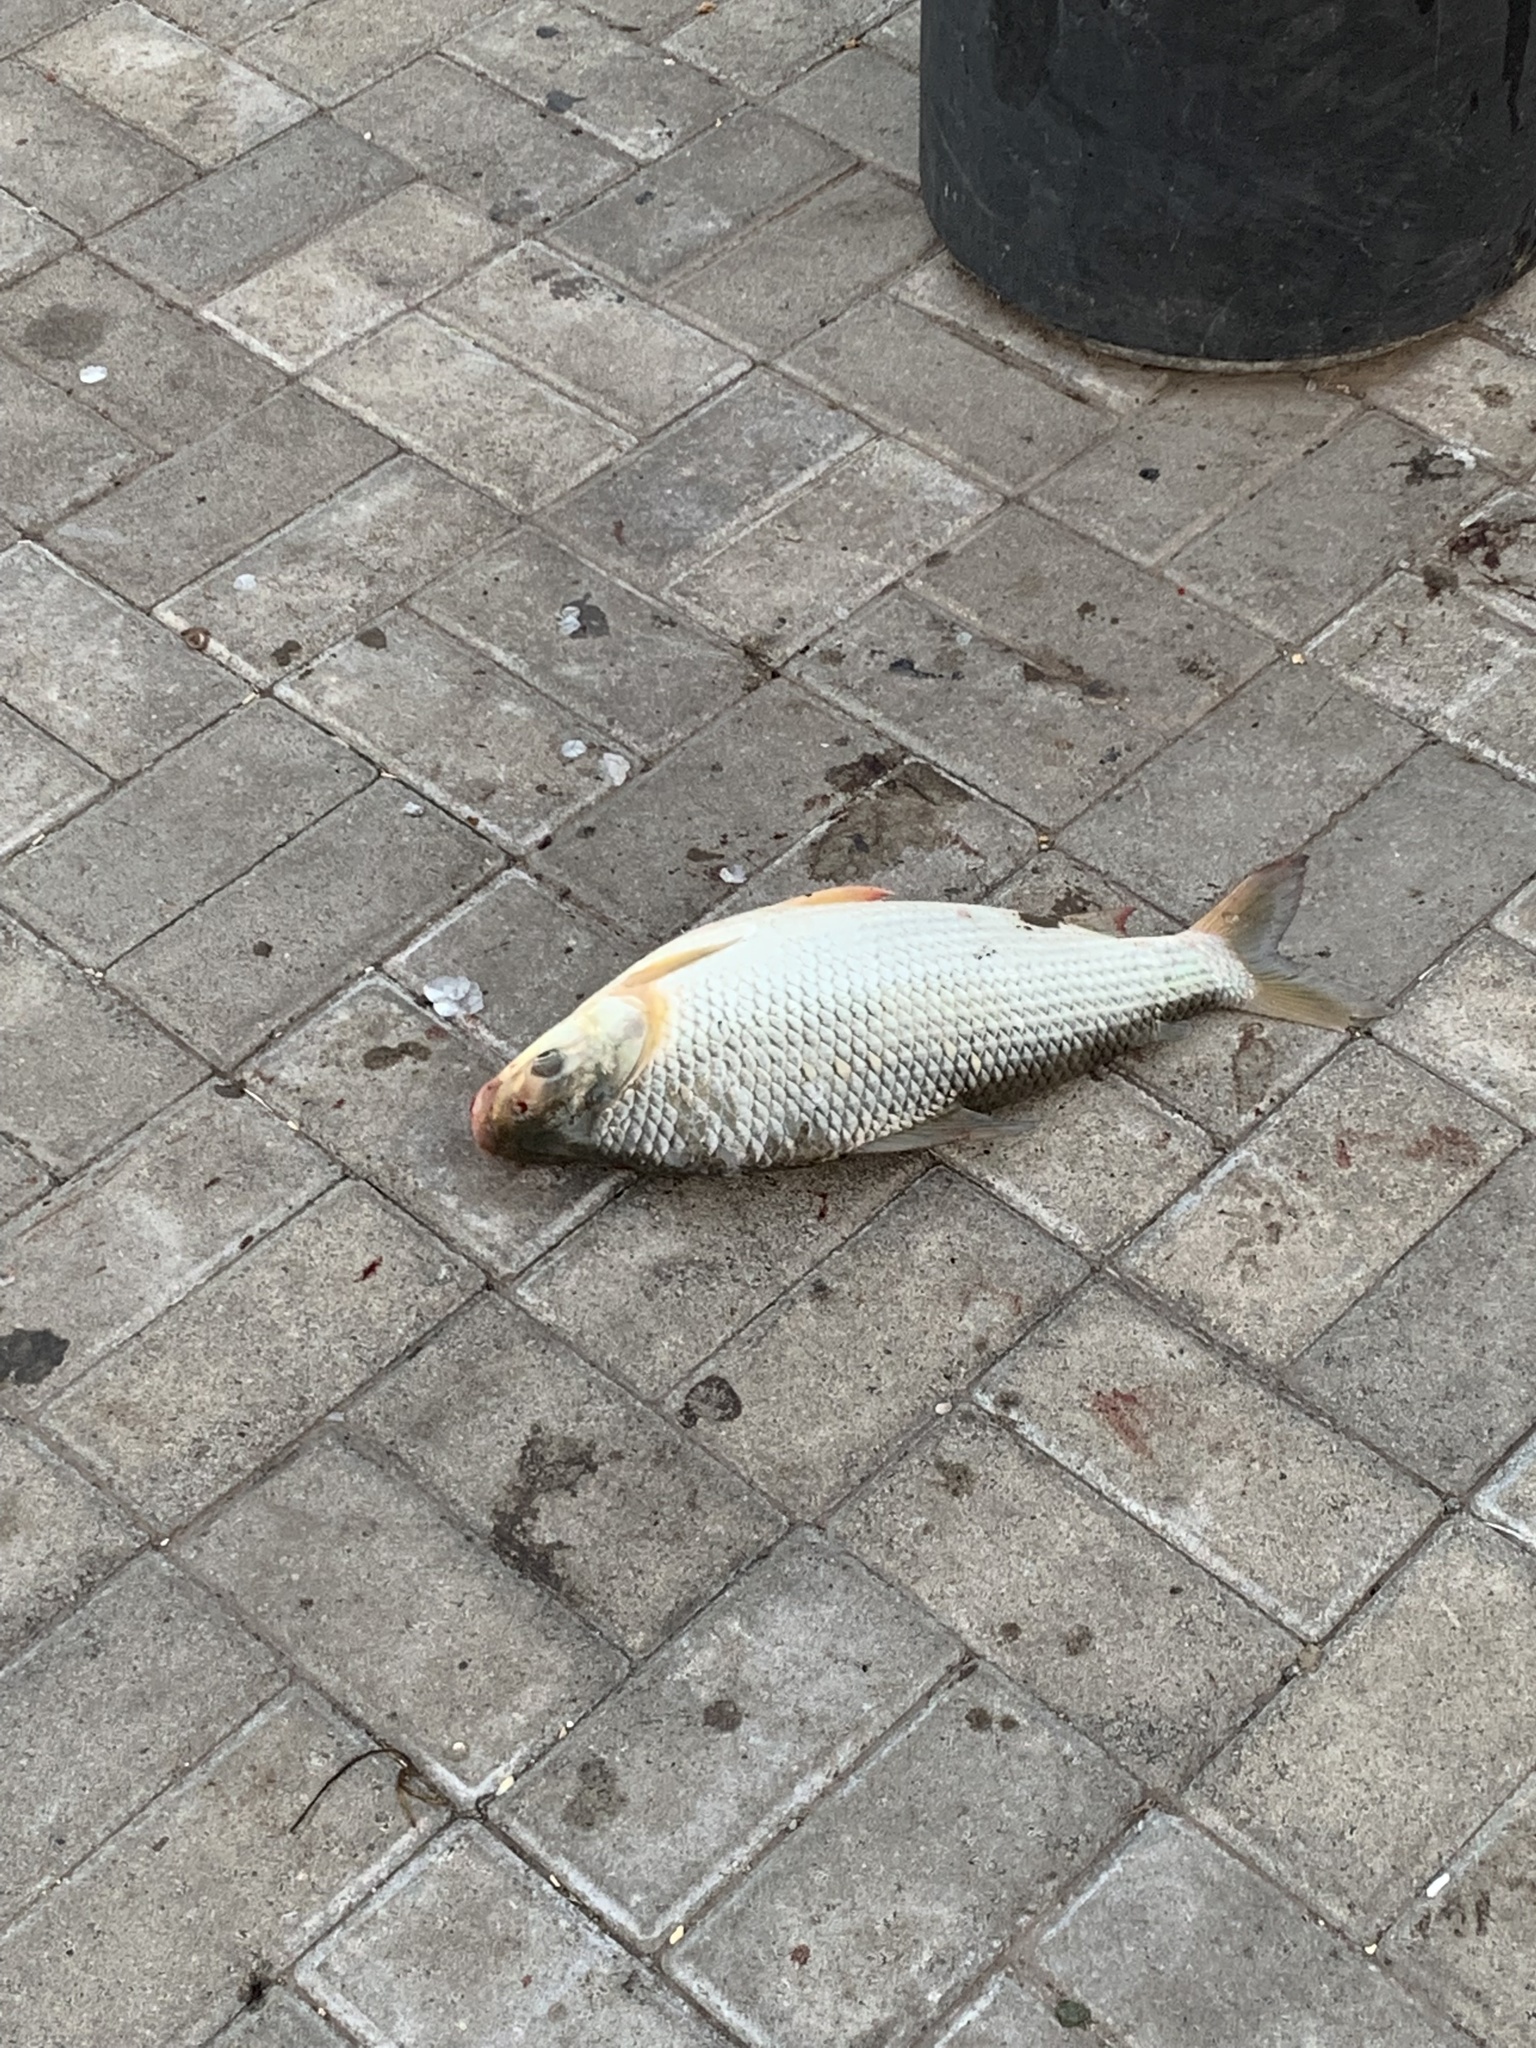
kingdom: Animalia
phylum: Chordata
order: Characiformes
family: Prochilodontidae
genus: Prochilodus
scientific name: Prochilodus lineatus
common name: Curimbata
